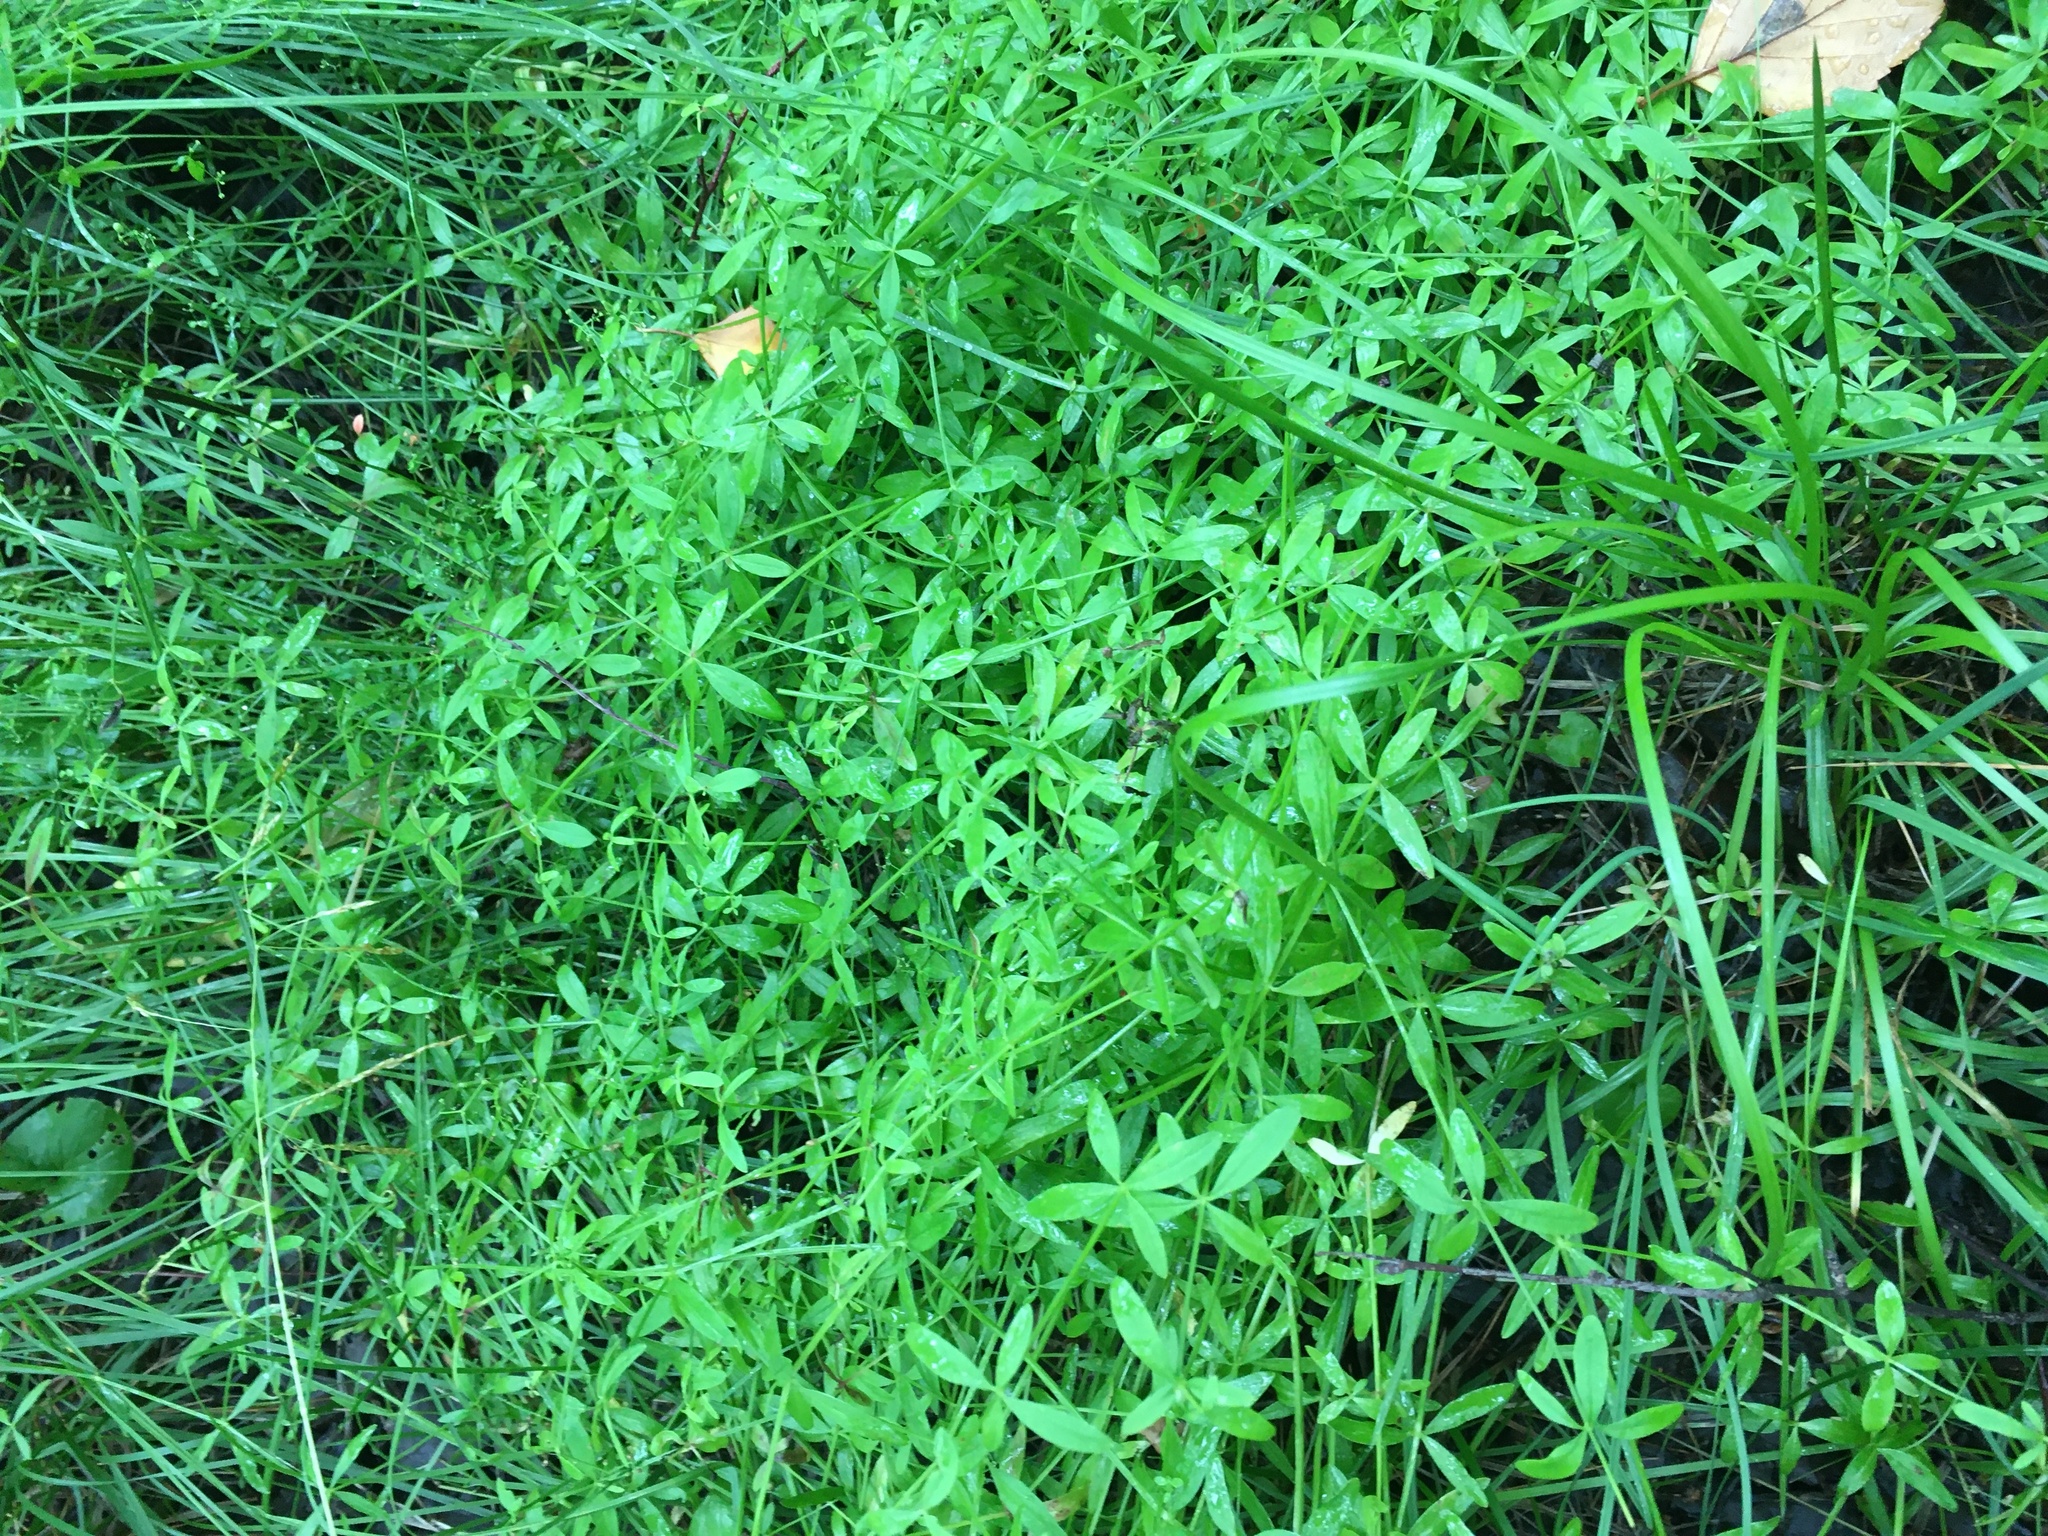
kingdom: Plantae
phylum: Tracheophyta
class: Magnoliopsida
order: Gentianales
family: Rubiaceae
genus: Galium
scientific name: Galium palustre
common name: Common marsh-bedstraw
